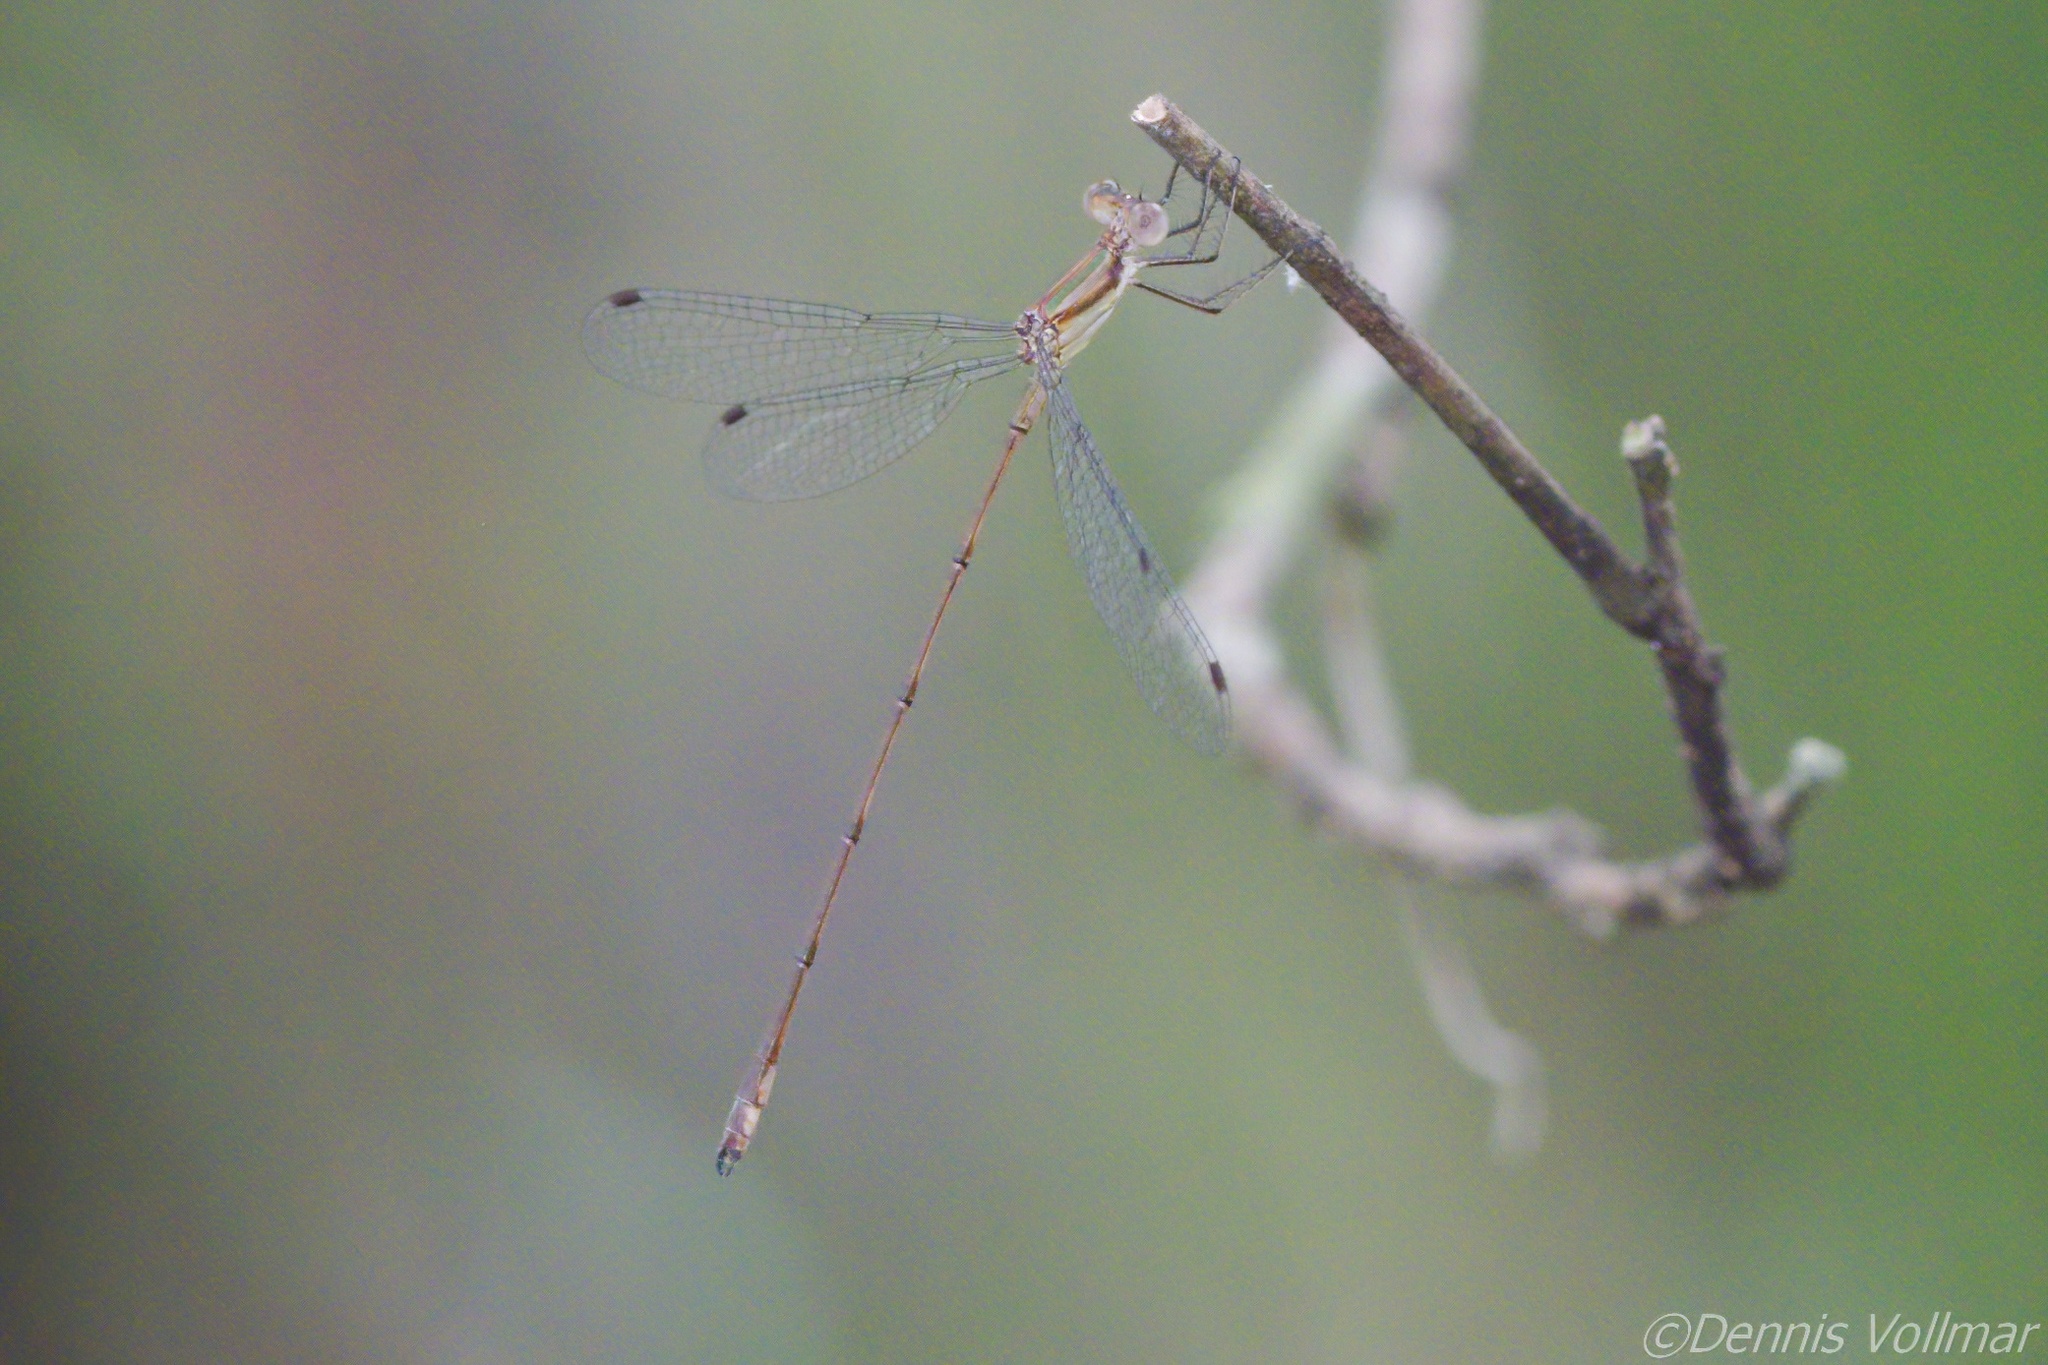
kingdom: Animalia
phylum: Arthropoda
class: Insecta
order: Odonata
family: Lestidae
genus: Lestes
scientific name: Lestes tenuatus
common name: Blue-striped spreadwing
